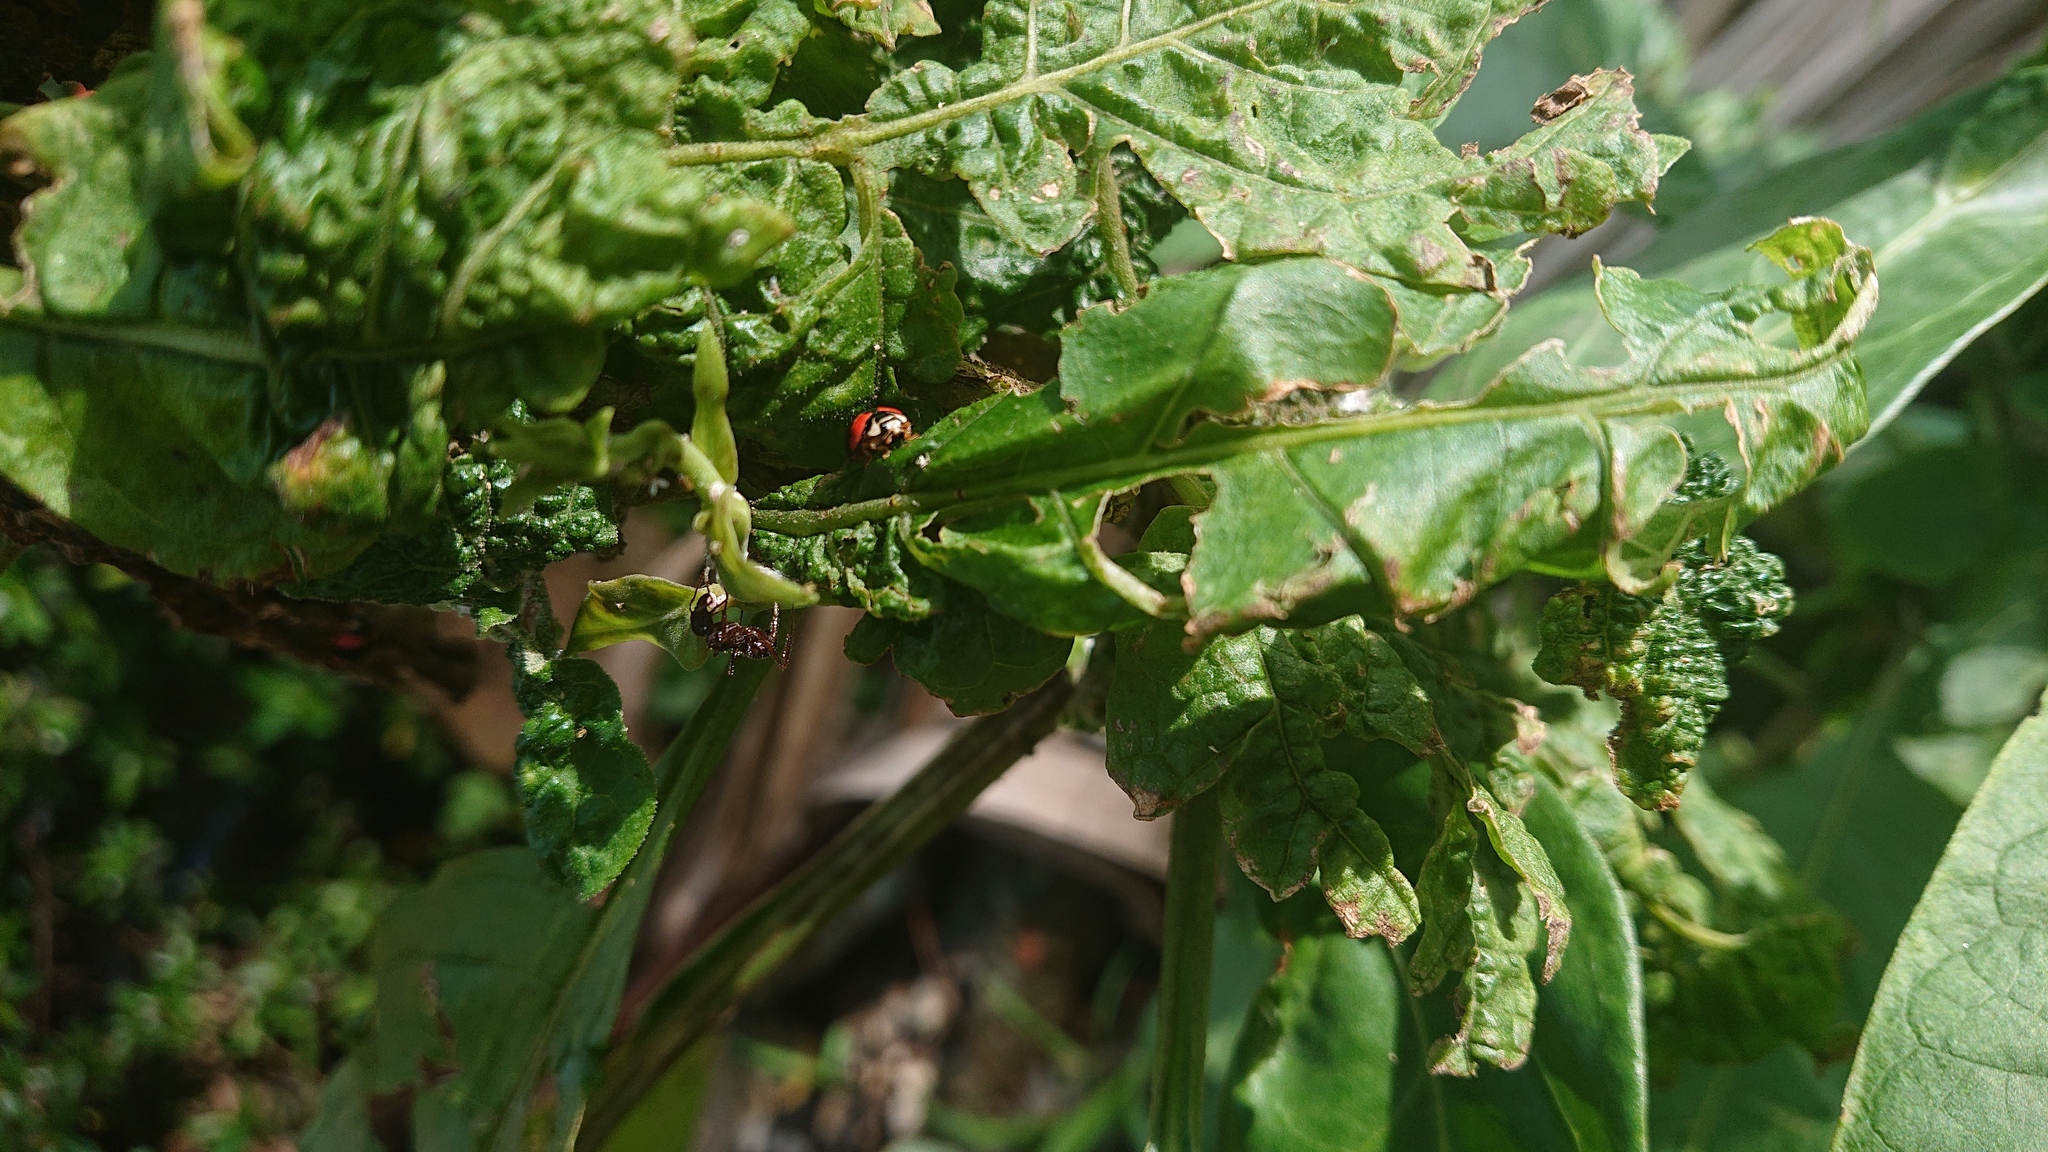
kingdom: Animalia
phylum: Arthropoda
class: Insecta
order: Coleoptera
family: Coccinellidae
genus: Cheilomenes
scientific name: Cheilomenes sexmaculata
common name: Ladybird beetle
